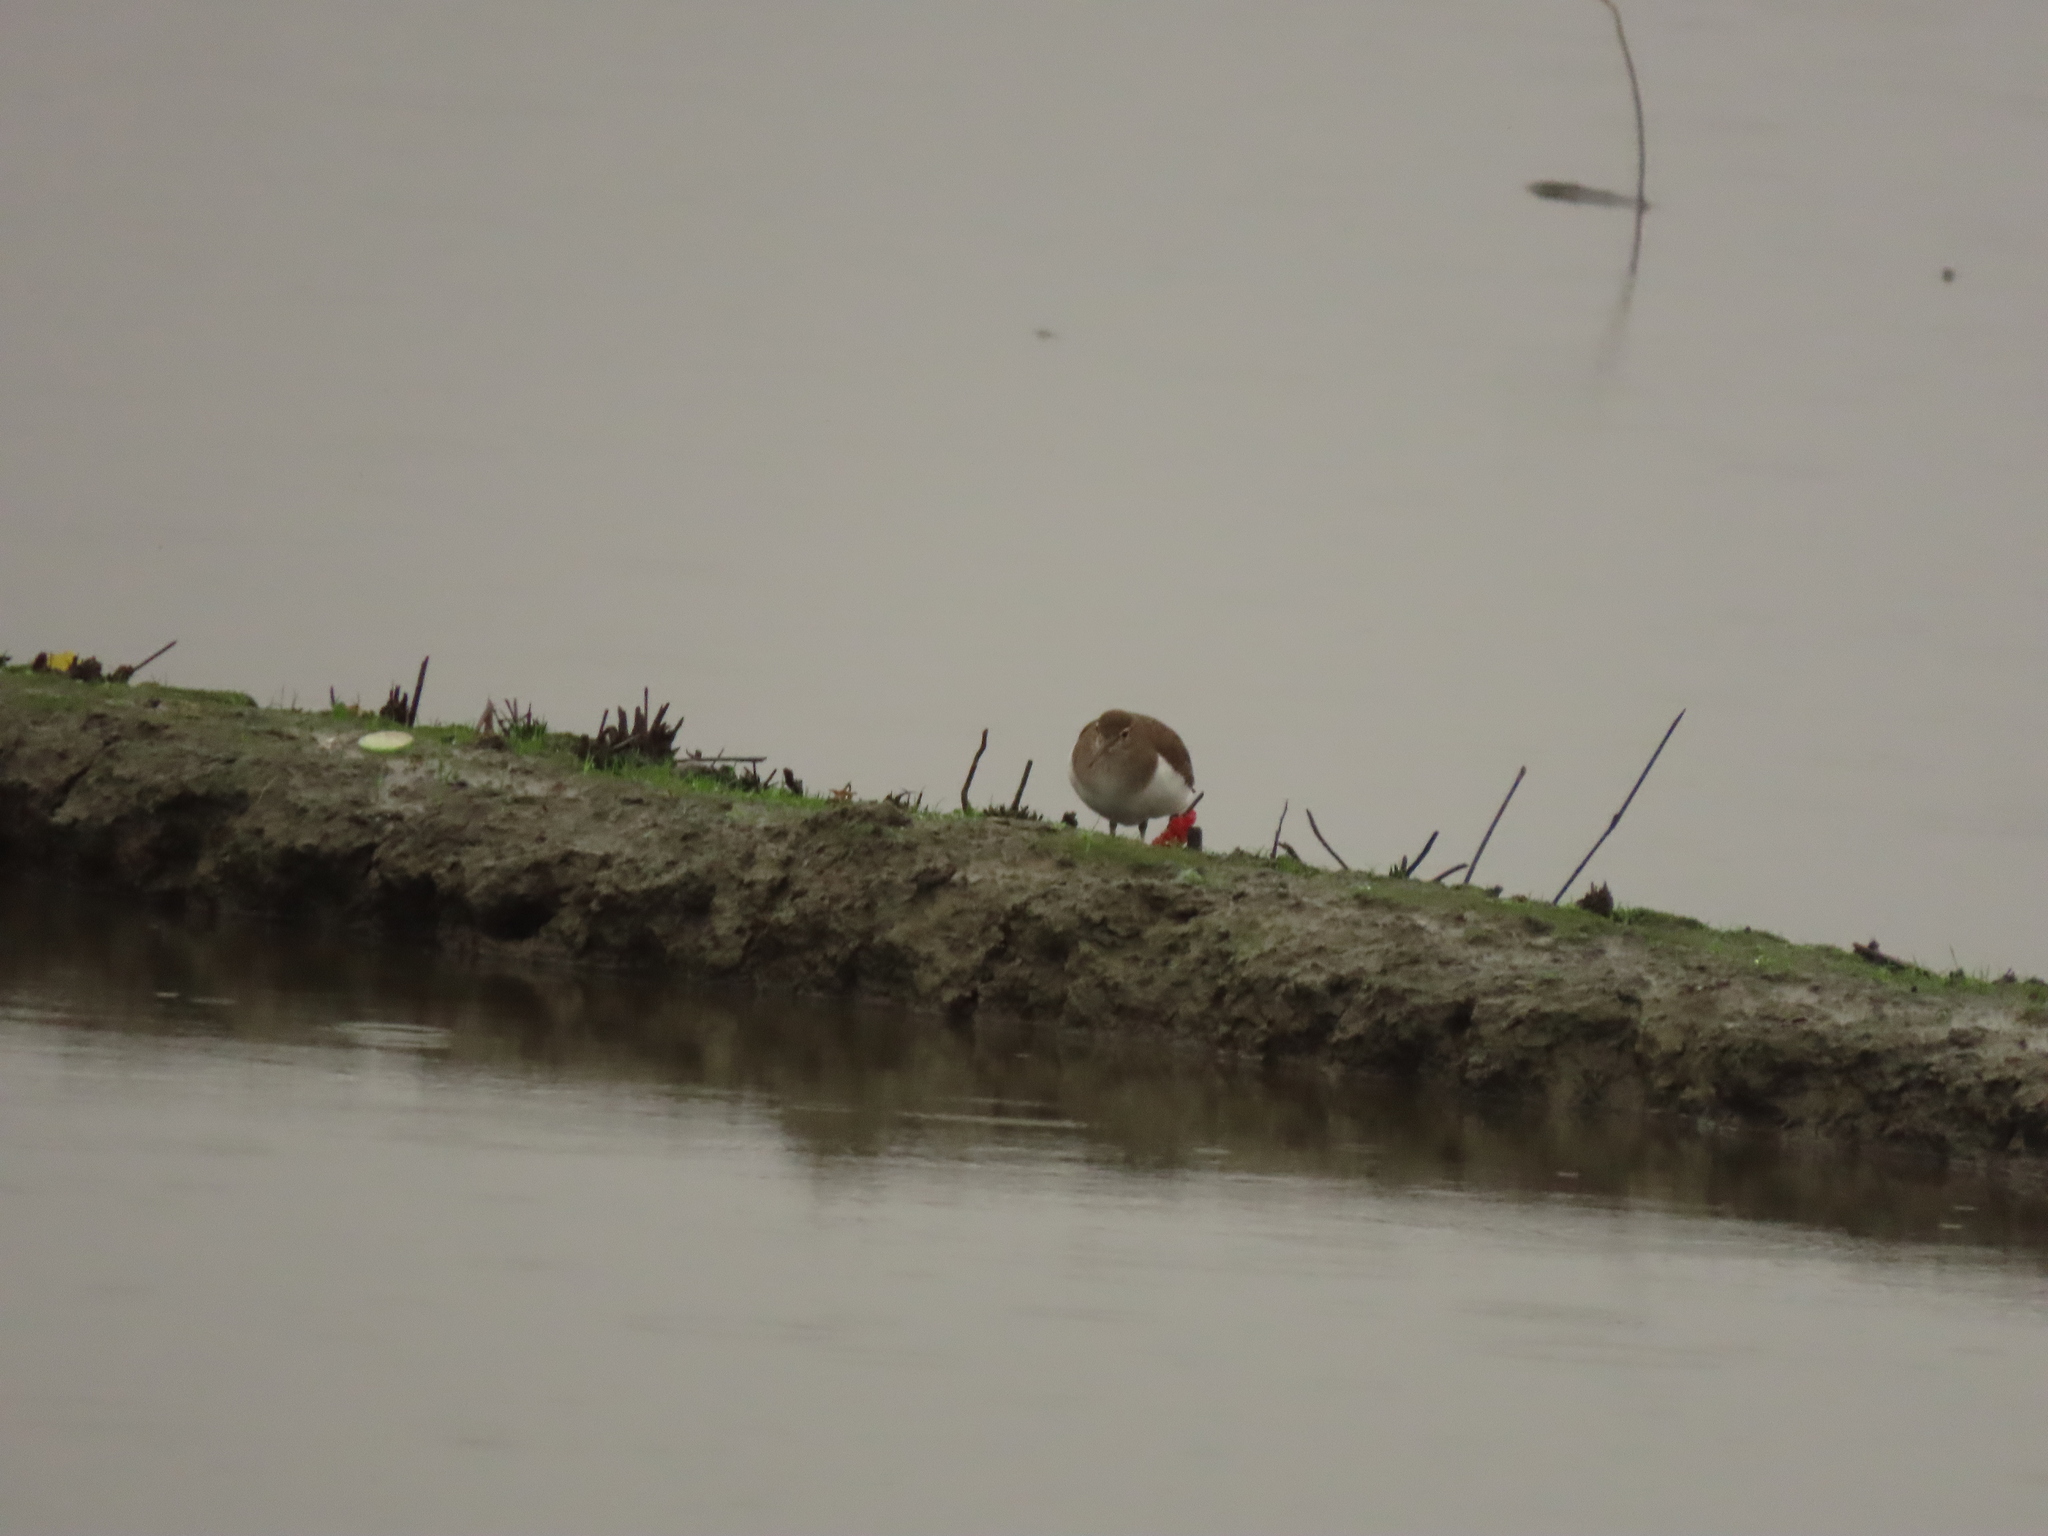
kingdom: Animalia
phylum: Chordata
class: Aves
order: Charadriiformes
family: Scolopacidae
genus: Actitis
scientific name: Actitis hypoleucos
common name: Common sandpiper
